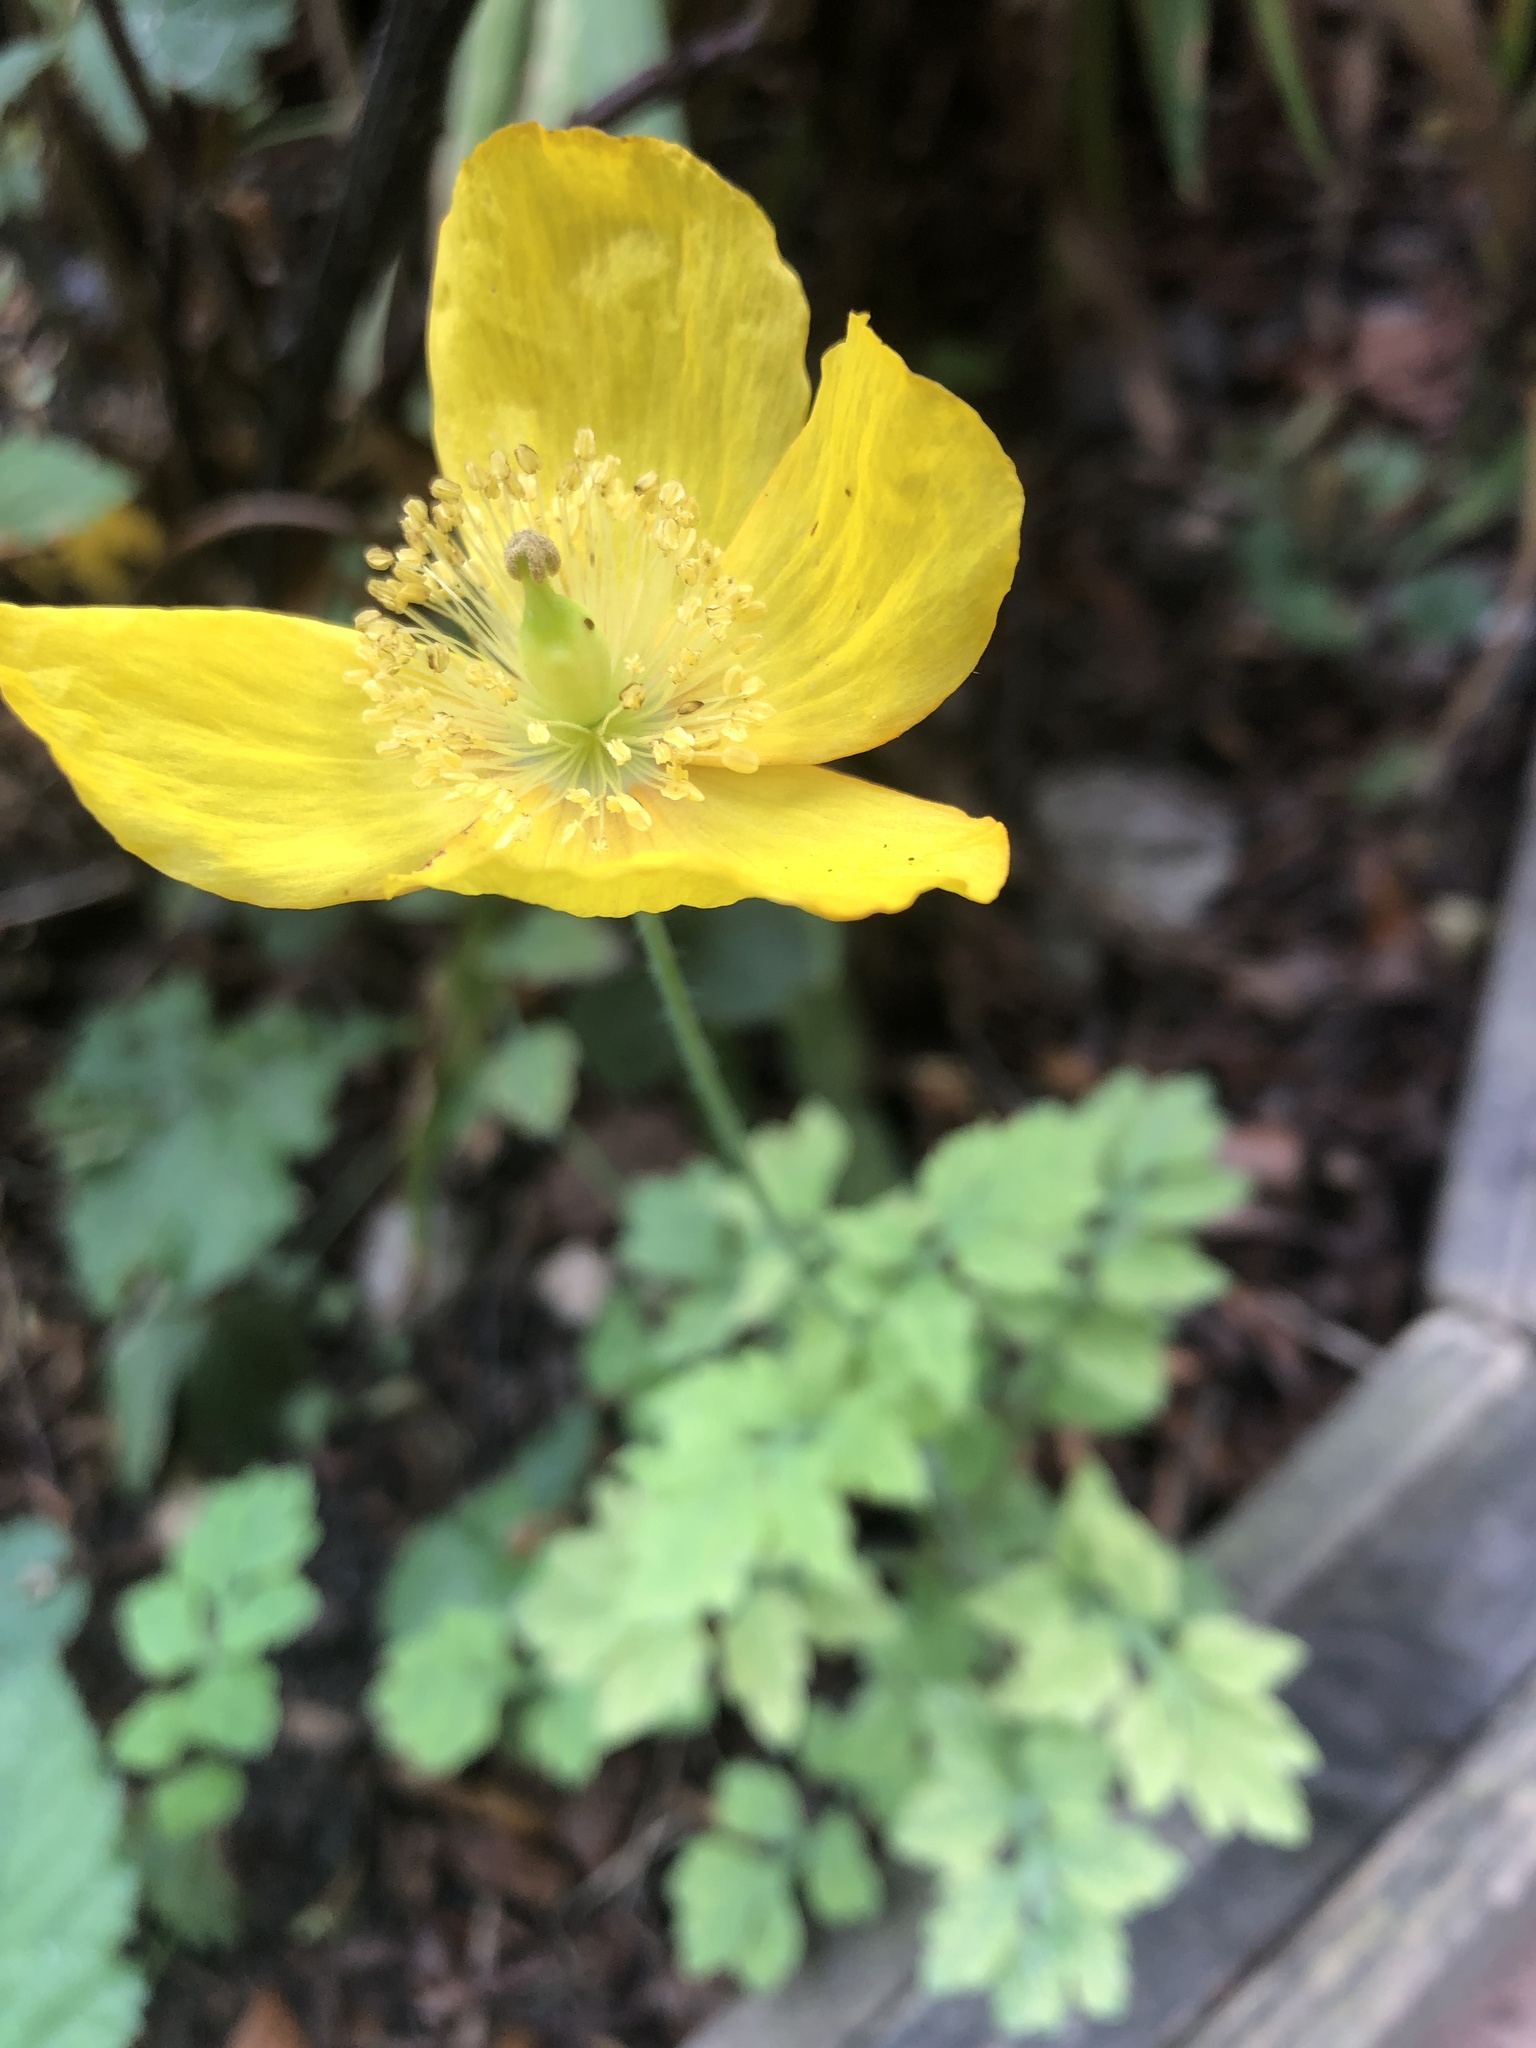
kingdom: Plantae
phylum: Tracheophyta
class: Magnoliopsida
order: Ranunculales
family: Papaveraceae
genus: Papaver
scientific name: Papaver cambricum
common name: Poppy
